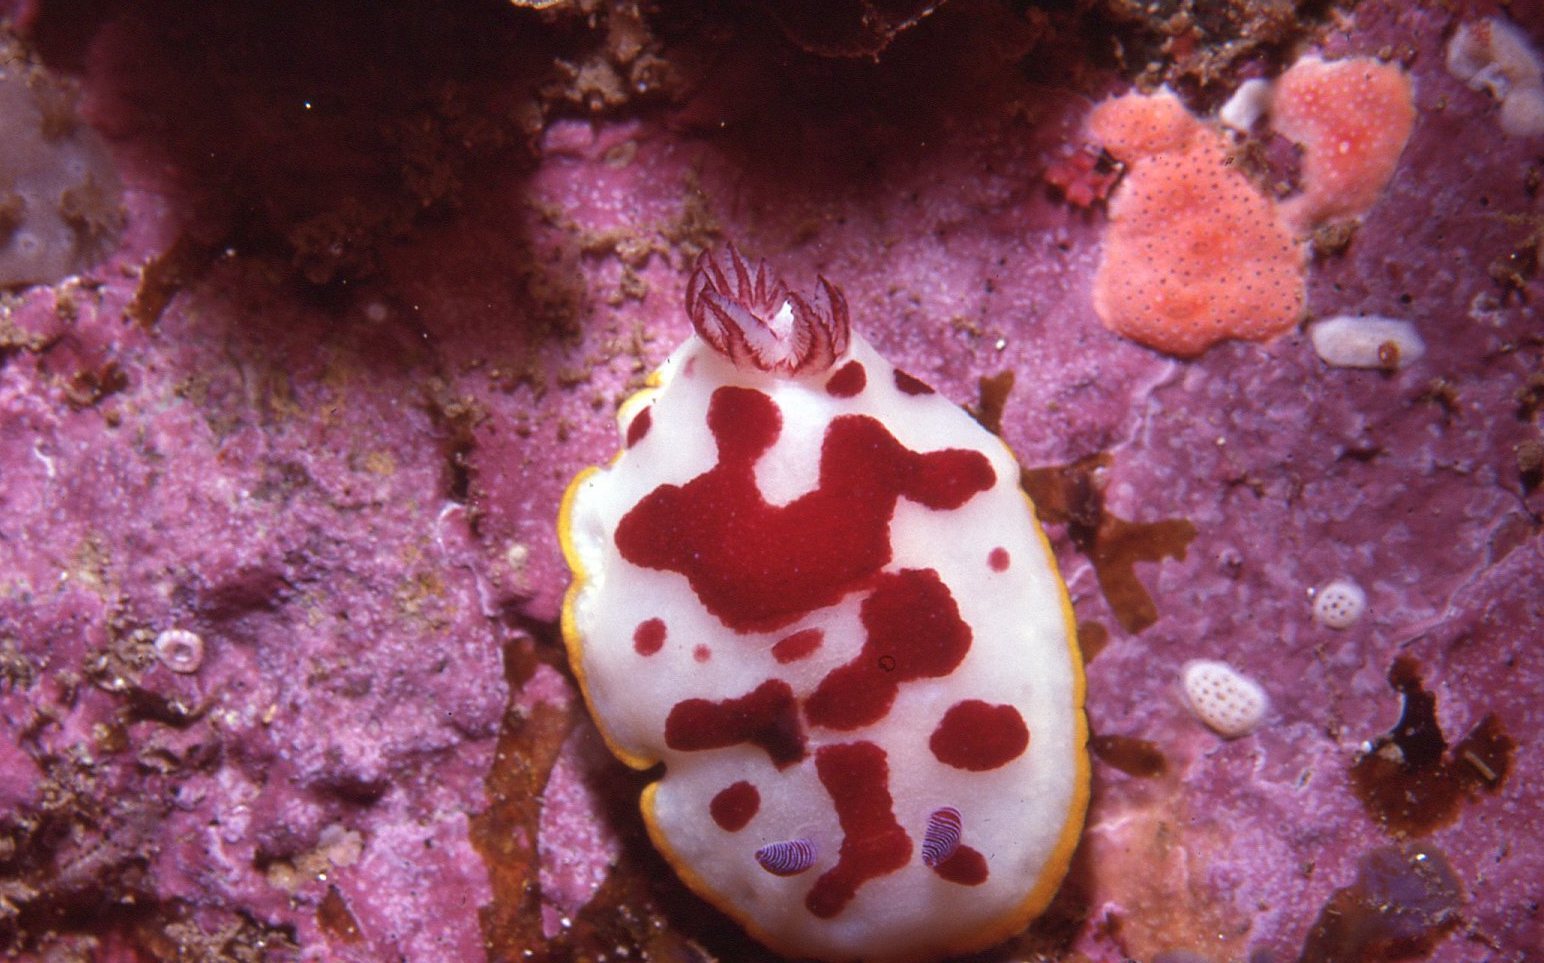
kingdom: Animalia
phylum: Mollusca
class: Gastropoda
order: Nudibranchia
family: Chromodorididae
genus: Goniobranchus
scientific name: Goniobranchus splendidus
